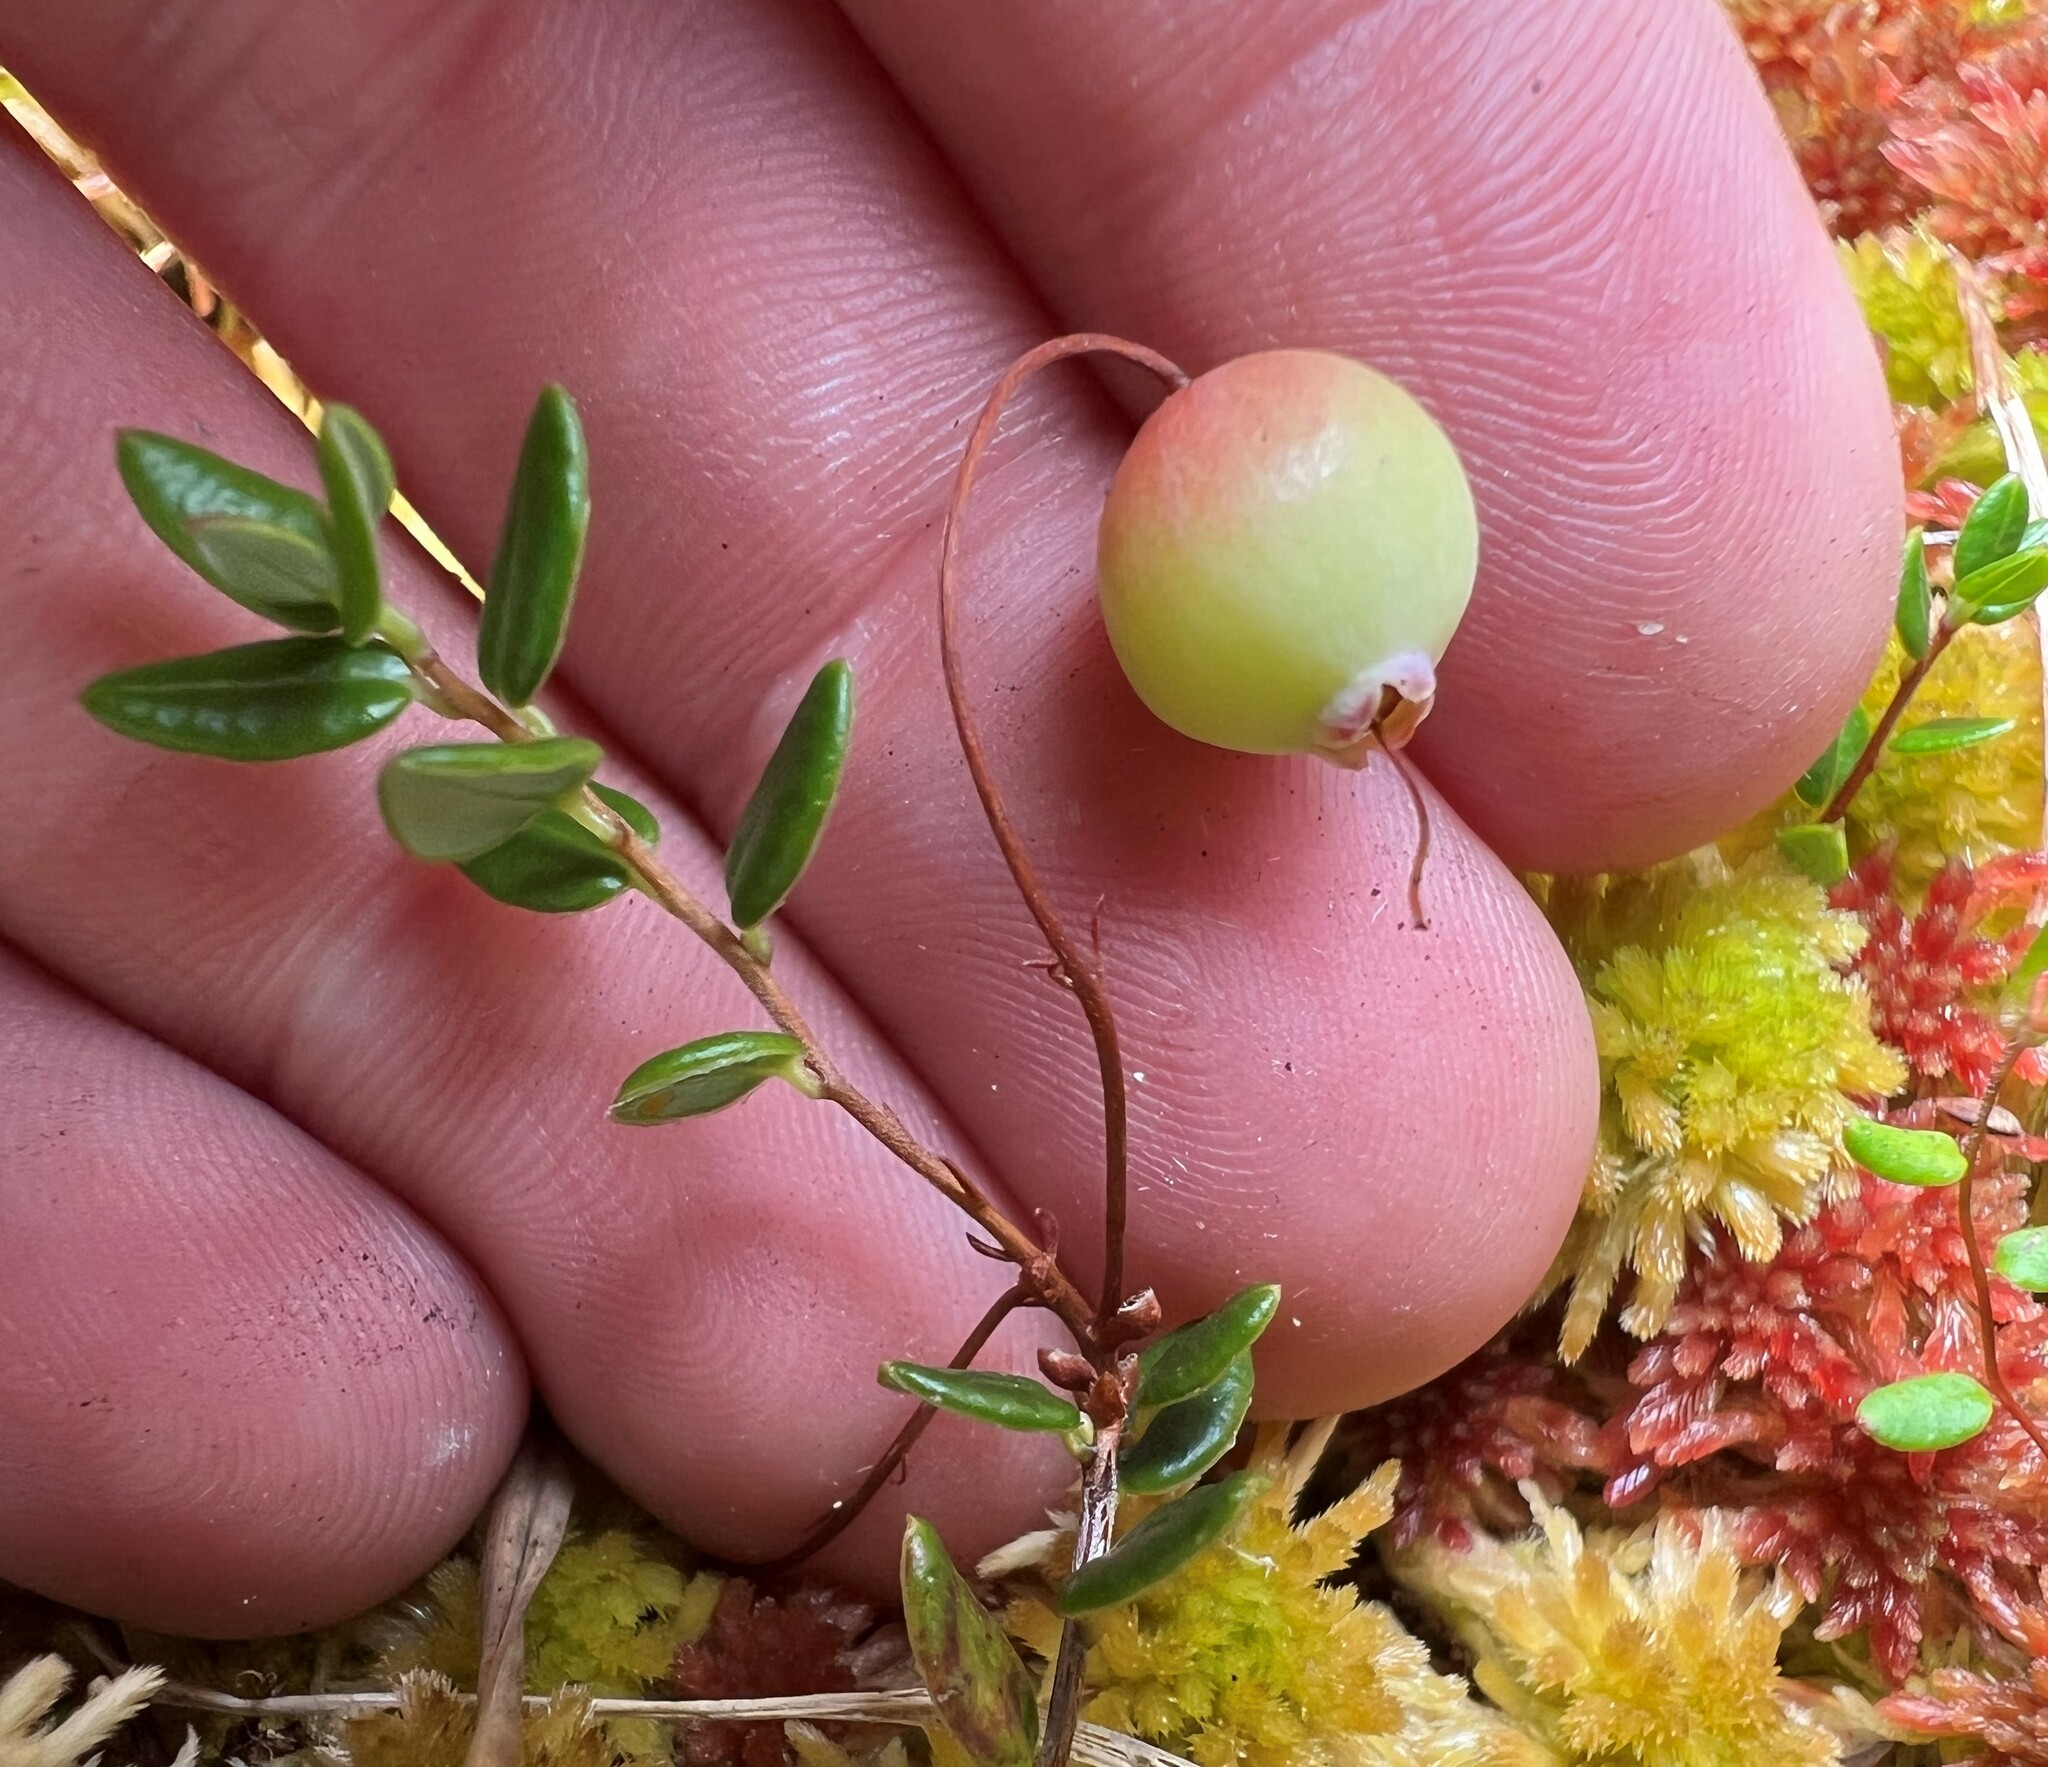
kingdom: Plantae
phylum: Tracheophyta
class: Magnoliopsida
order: Ericales
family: Ericaceae
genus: Vaccinium
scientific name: Vaccinium oxycoccos
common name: Cranberry
